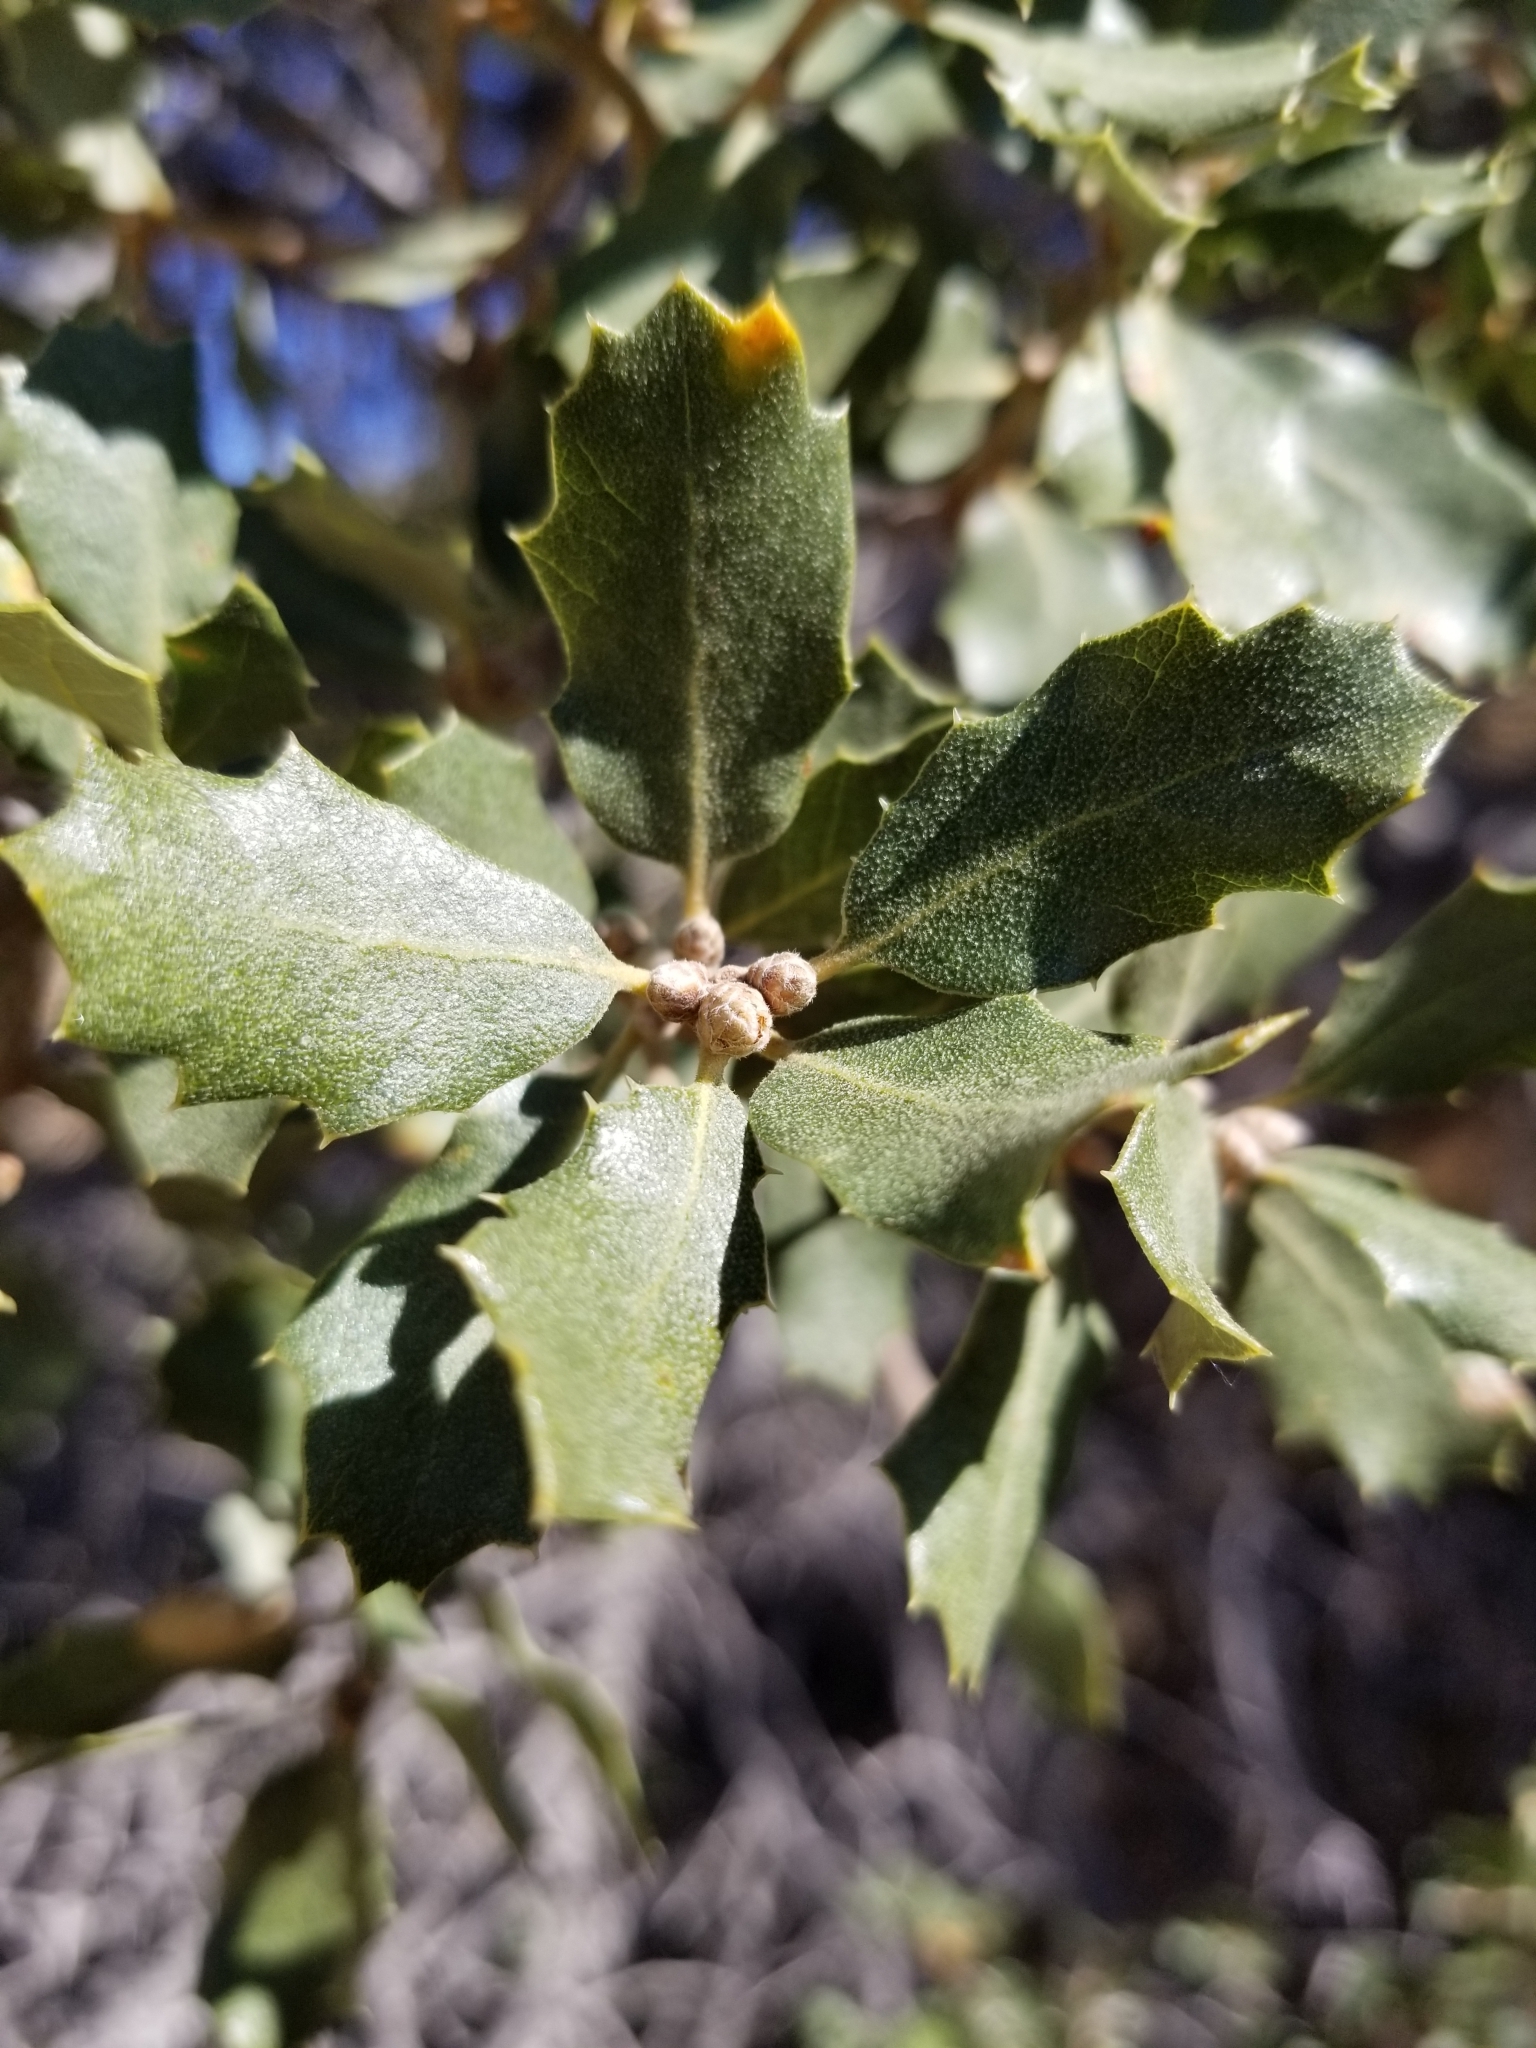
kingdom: Plantae
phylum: Tracheophyta
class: Magnoliopsida
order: Fagales
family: Fagaceae
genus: Quercus
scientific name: Quercus cornelius-mulleri
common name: Muller oak
